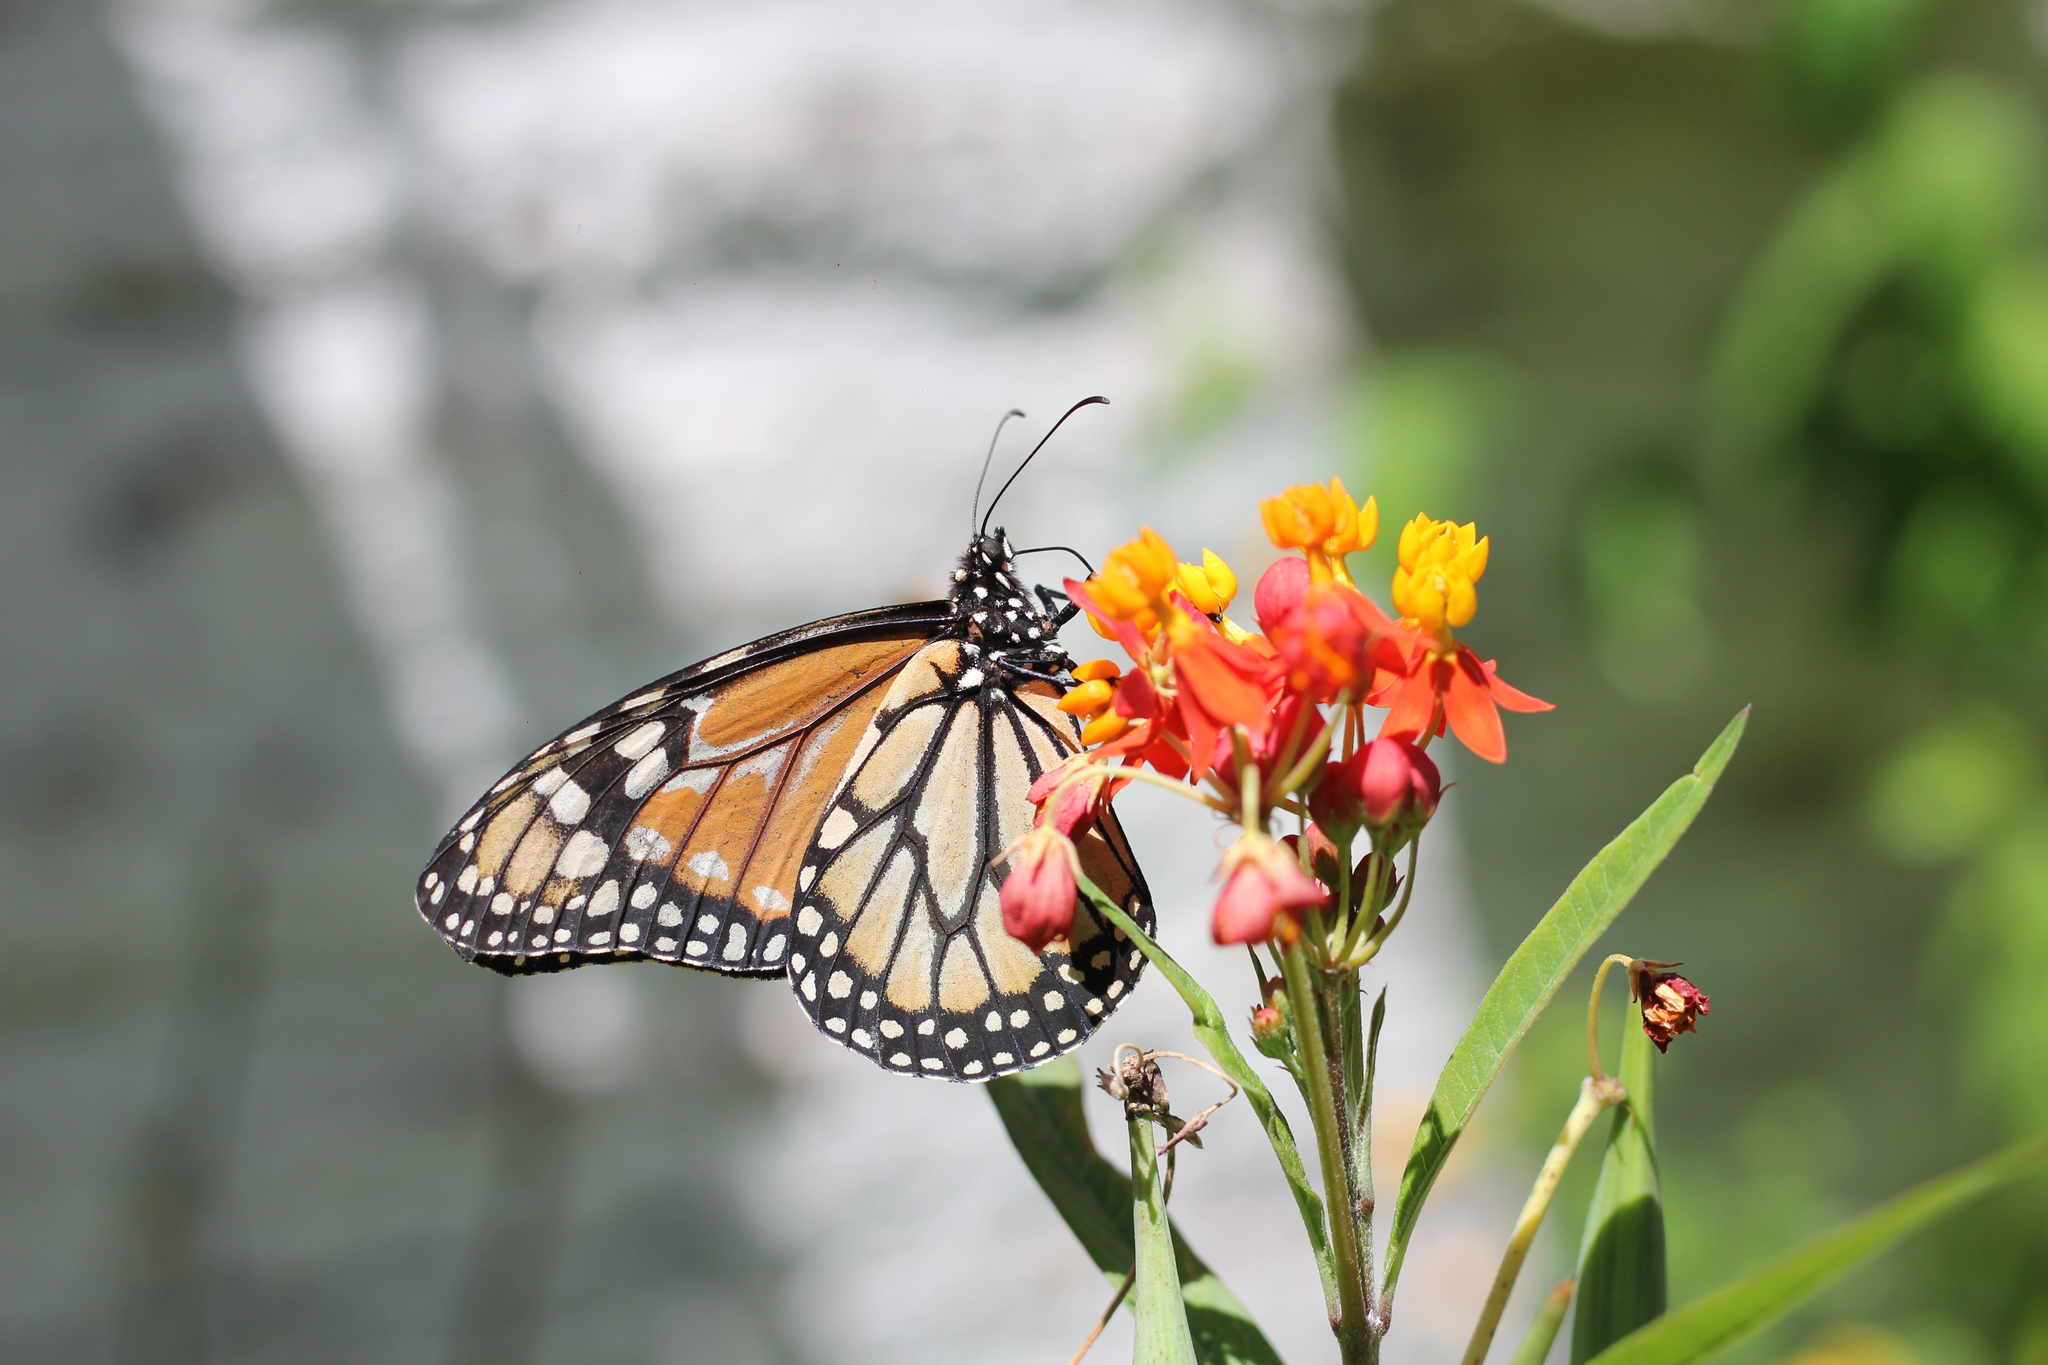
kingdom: Animalia
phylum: Arthropoda
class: Insecta
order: Lepidoptera
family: Nymphalidae
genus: Danaus
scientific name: Danaus erippus
